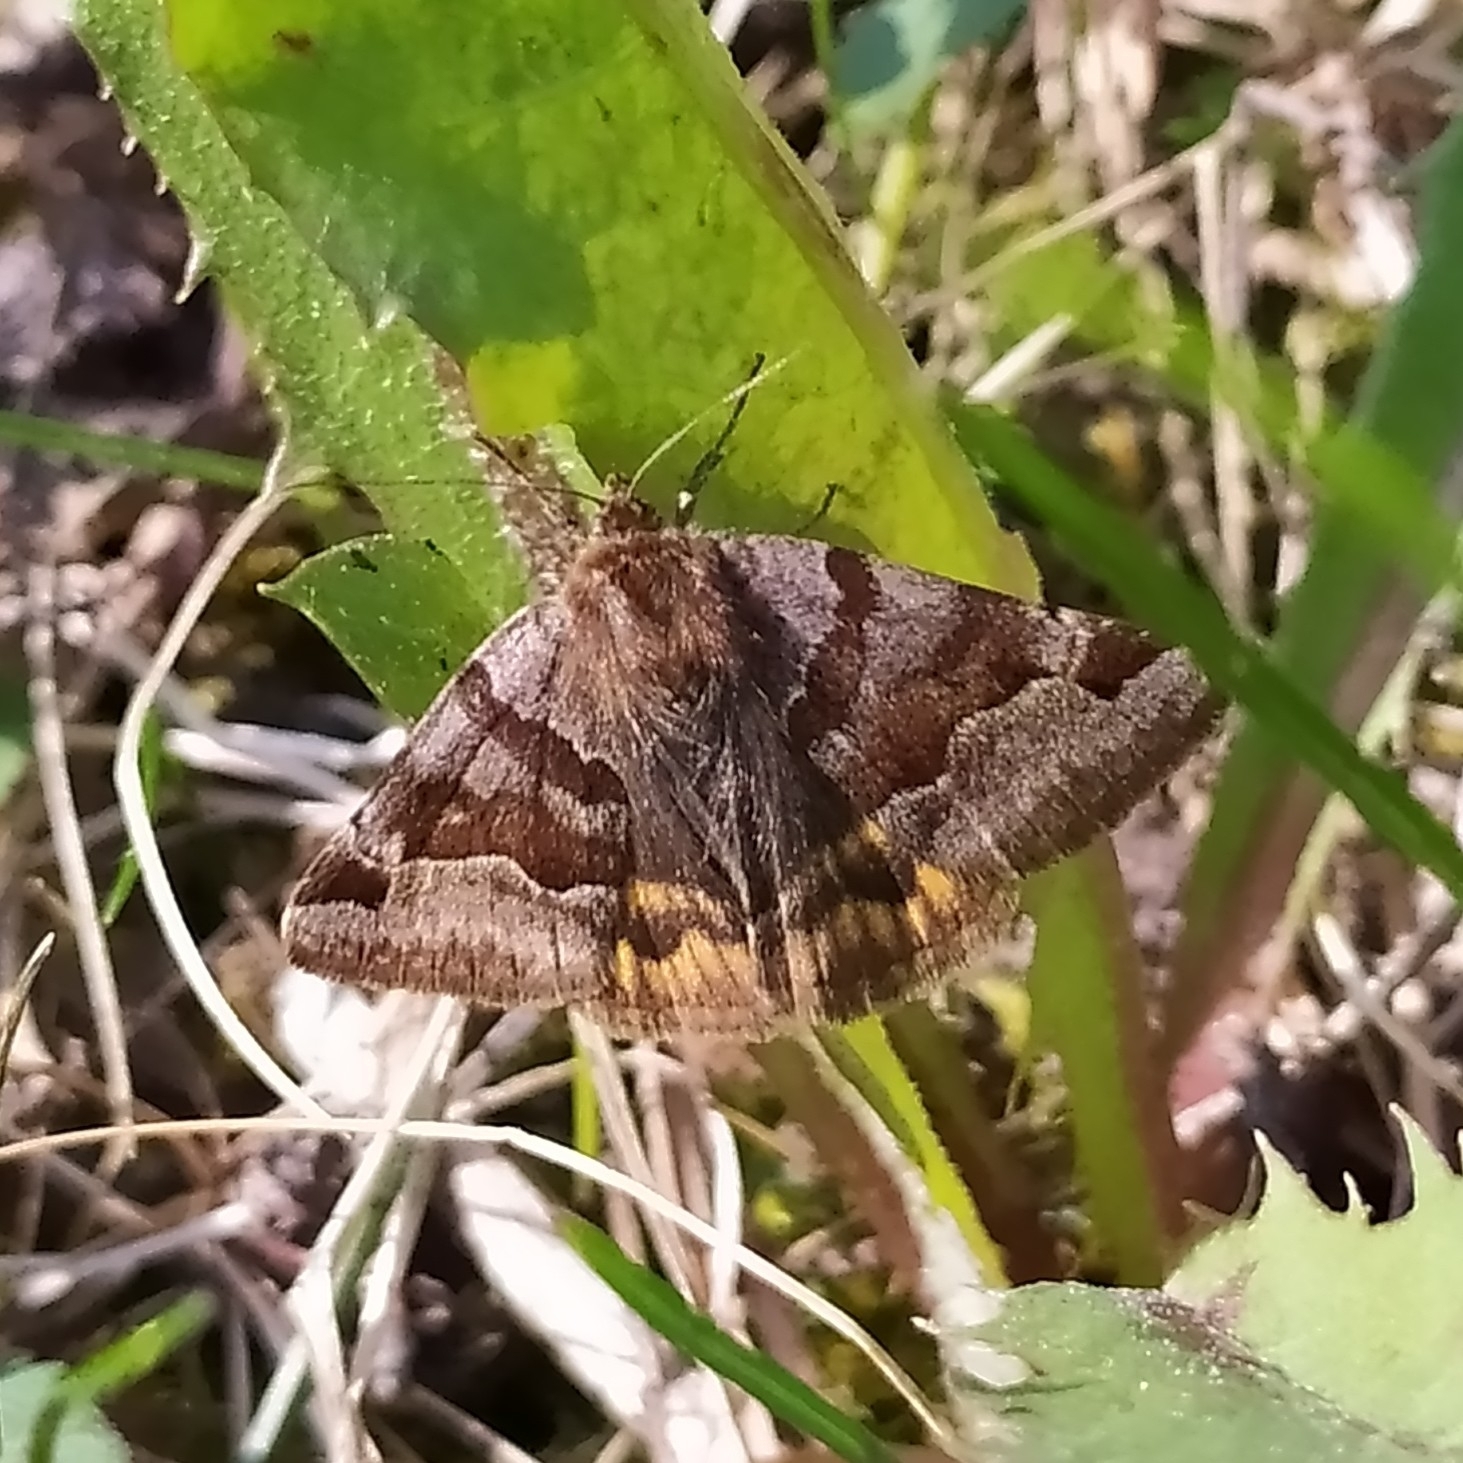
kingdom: Animalia
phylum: Arthropoda
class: Insecta
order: Lepidoptera
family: Erebidae
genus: Euclidia
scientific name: Euclidia glyphica
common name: Burnet companion
